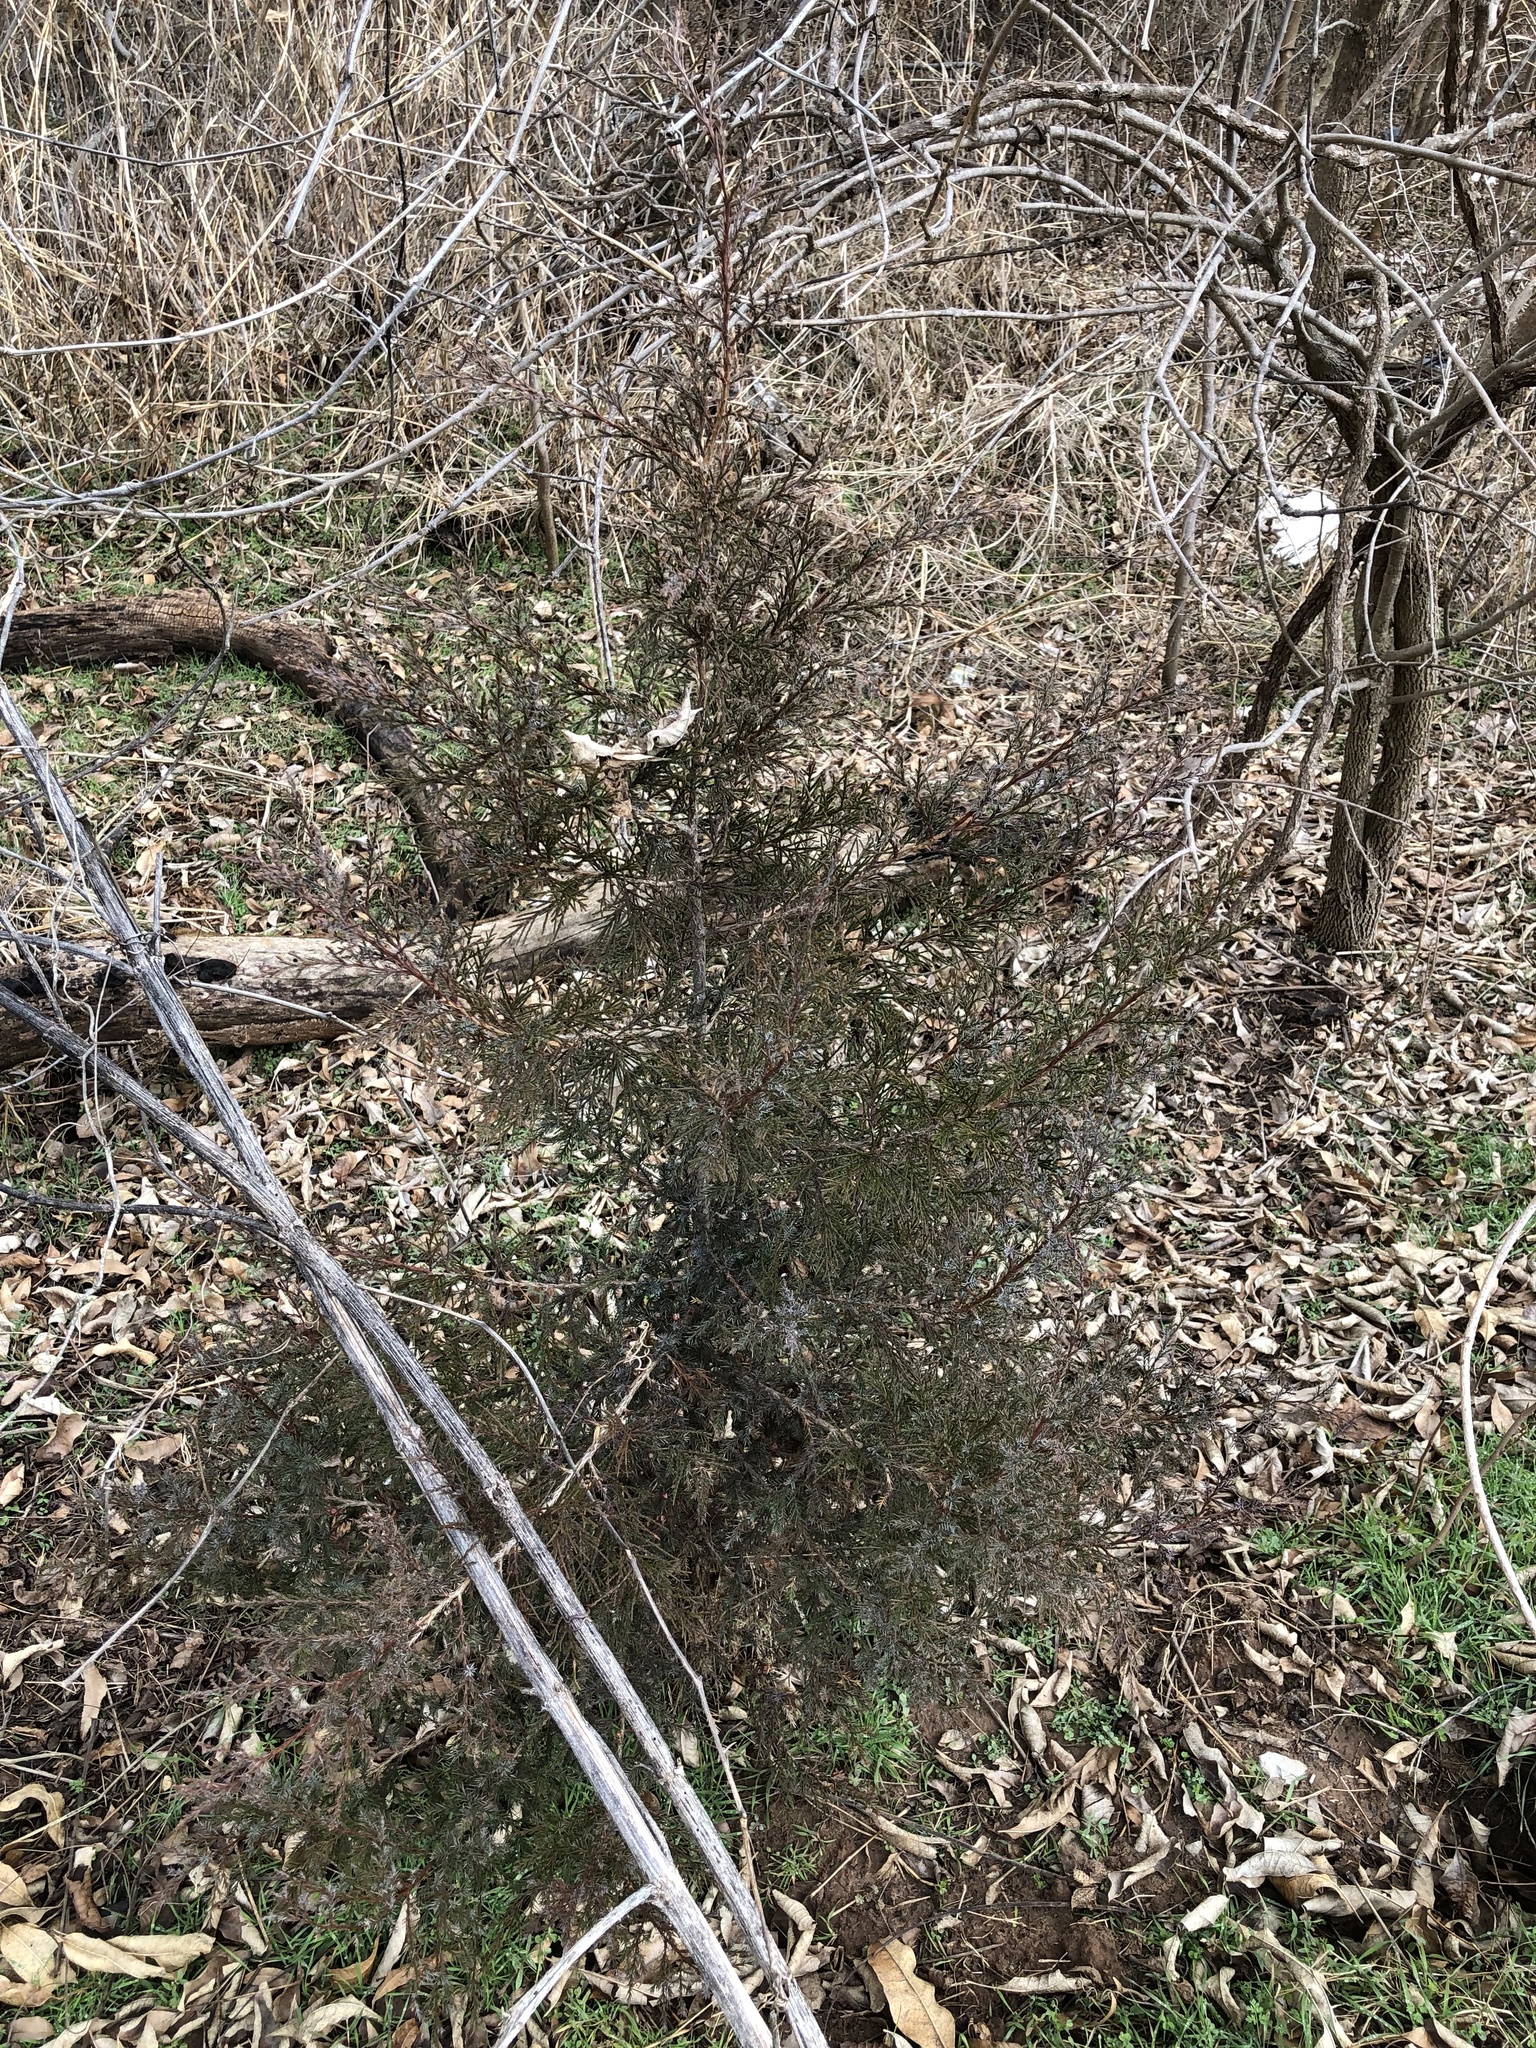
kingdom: Plantae
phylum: Tracheophyta
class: Pinopsida
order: Pinales
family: Cupressaceae
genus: Juniperus
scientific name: Juniperus virginiana
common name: Red juniper
